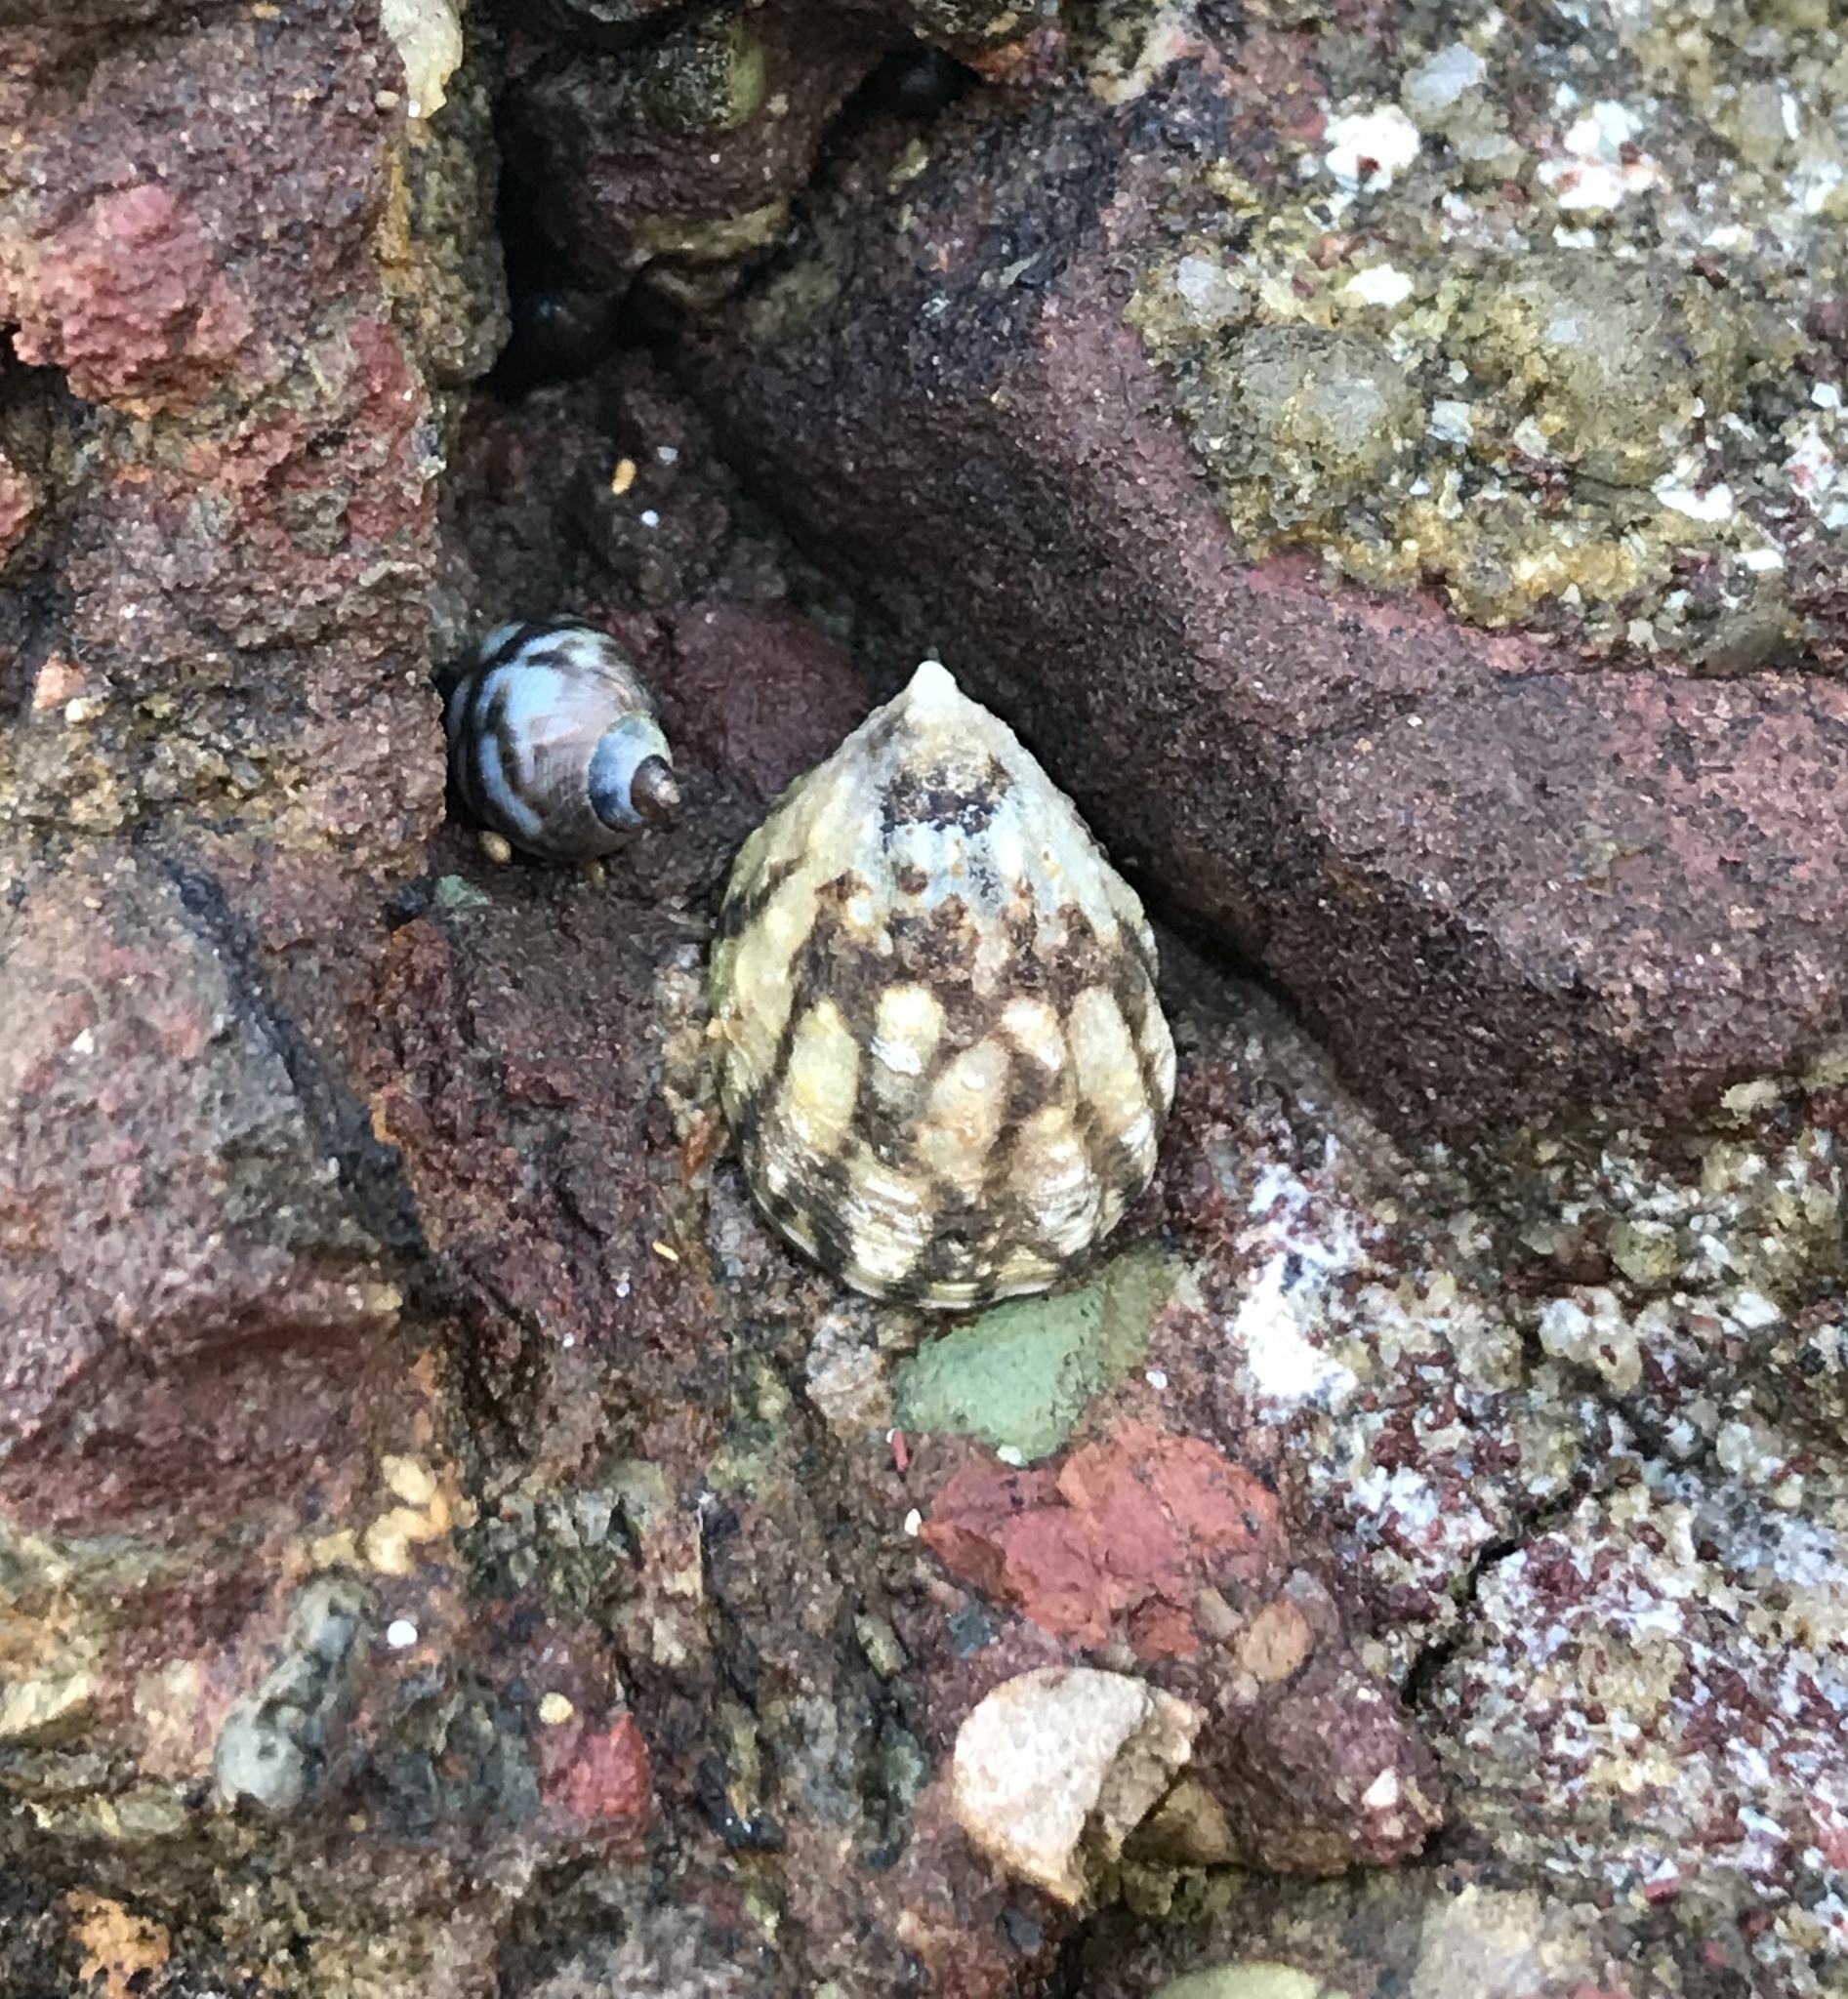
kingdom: Animalia
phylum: Mollusca
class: Gastropoda
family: Lottiidae
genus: Lottia
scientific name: Lottia digitalis
